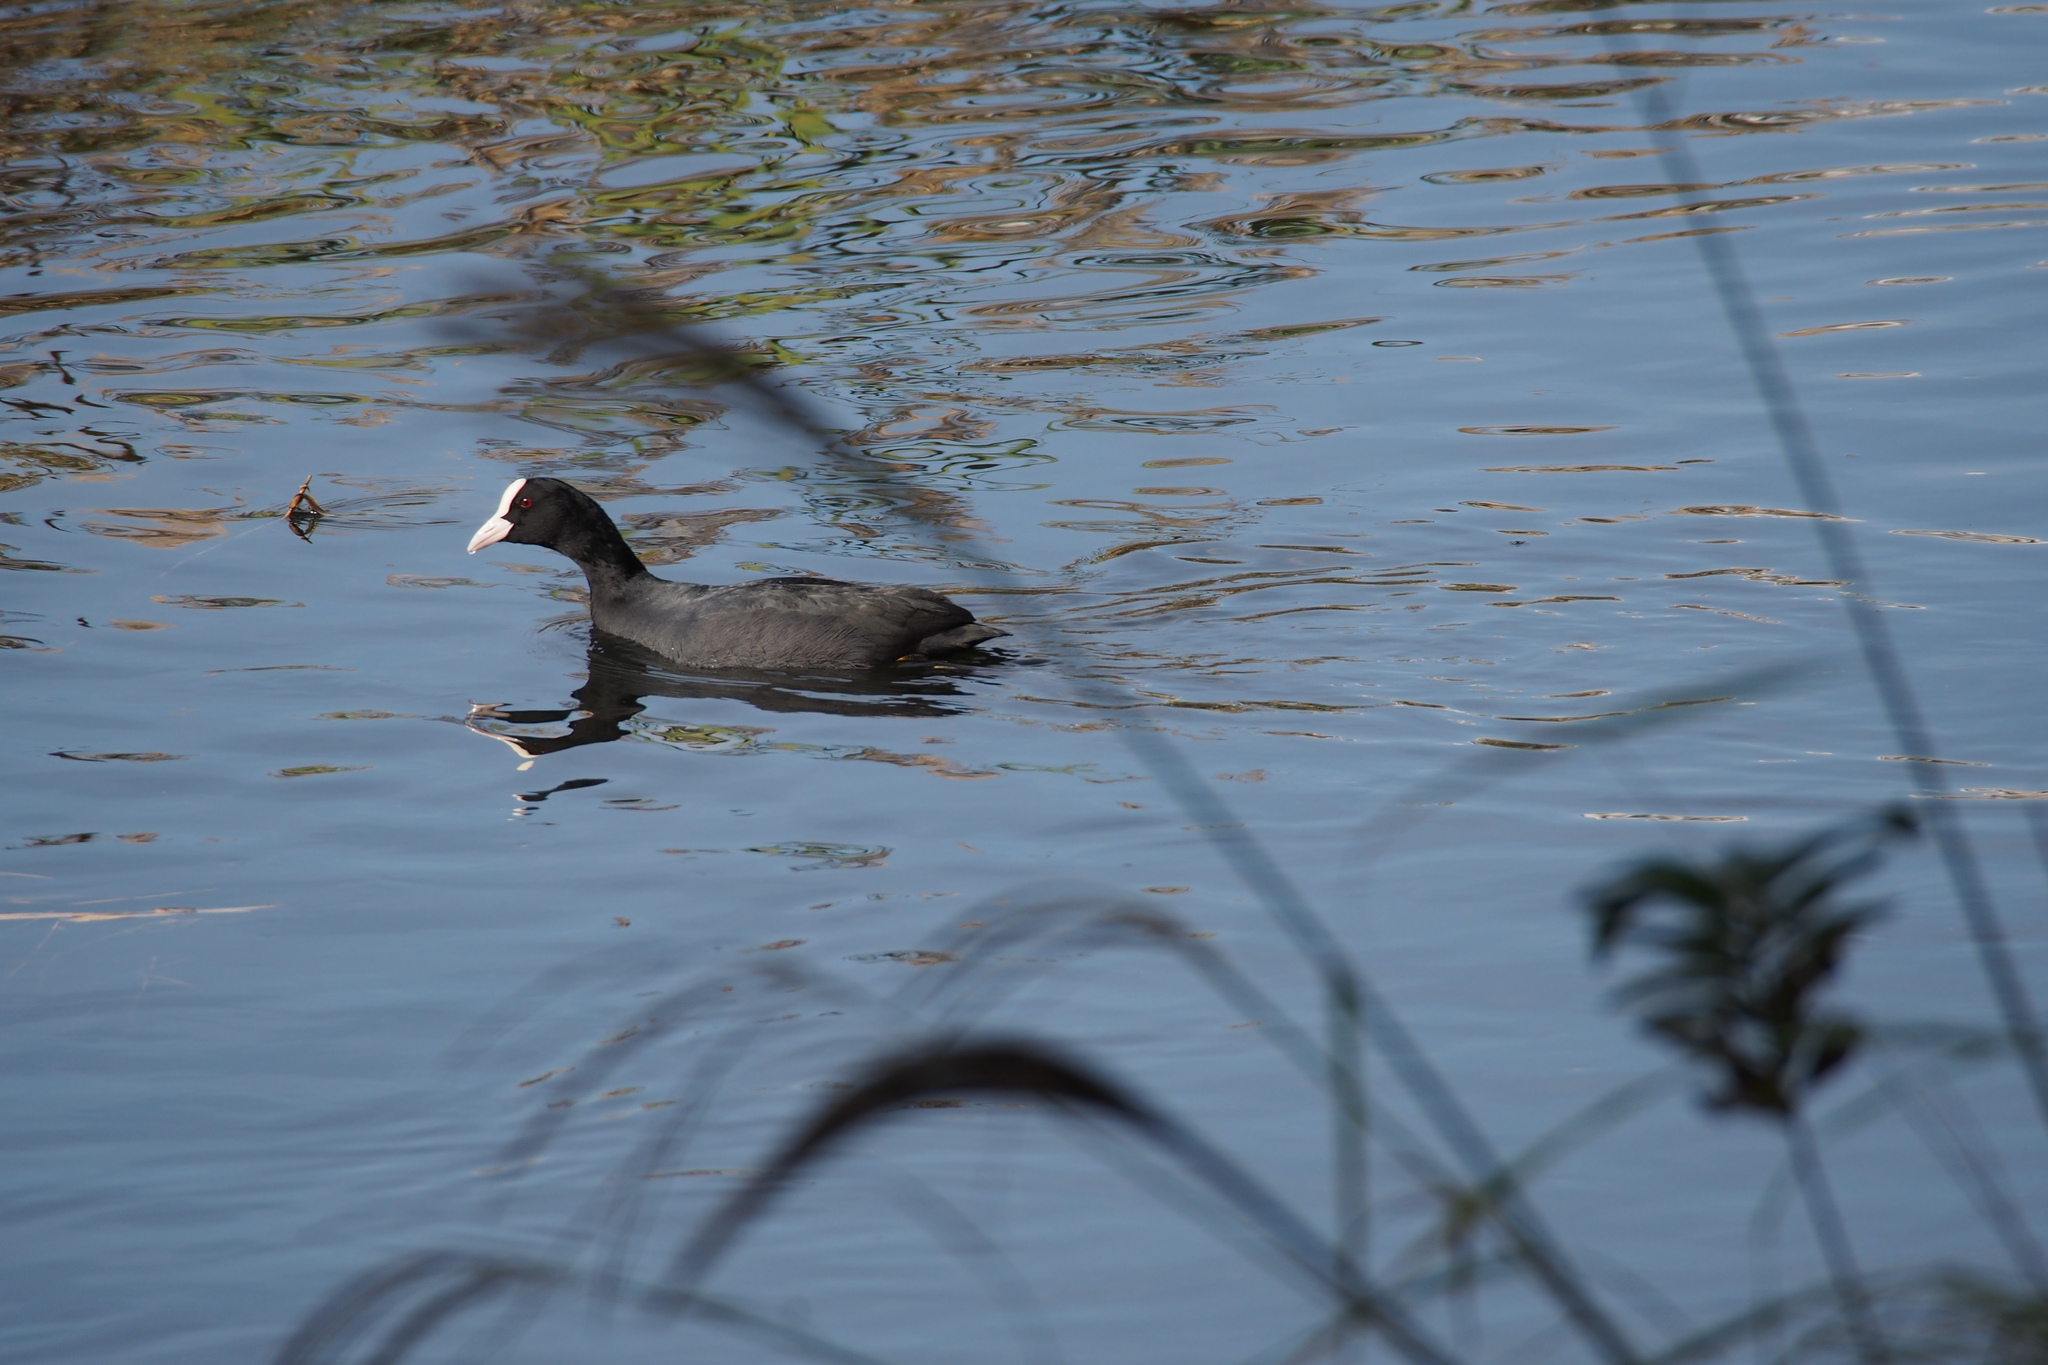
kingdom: Animalia
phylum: Chordata
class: Aves
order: Gruiformes
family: Rallidae
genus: Fulica
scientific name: Fulica atra
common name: Eurasian coot
